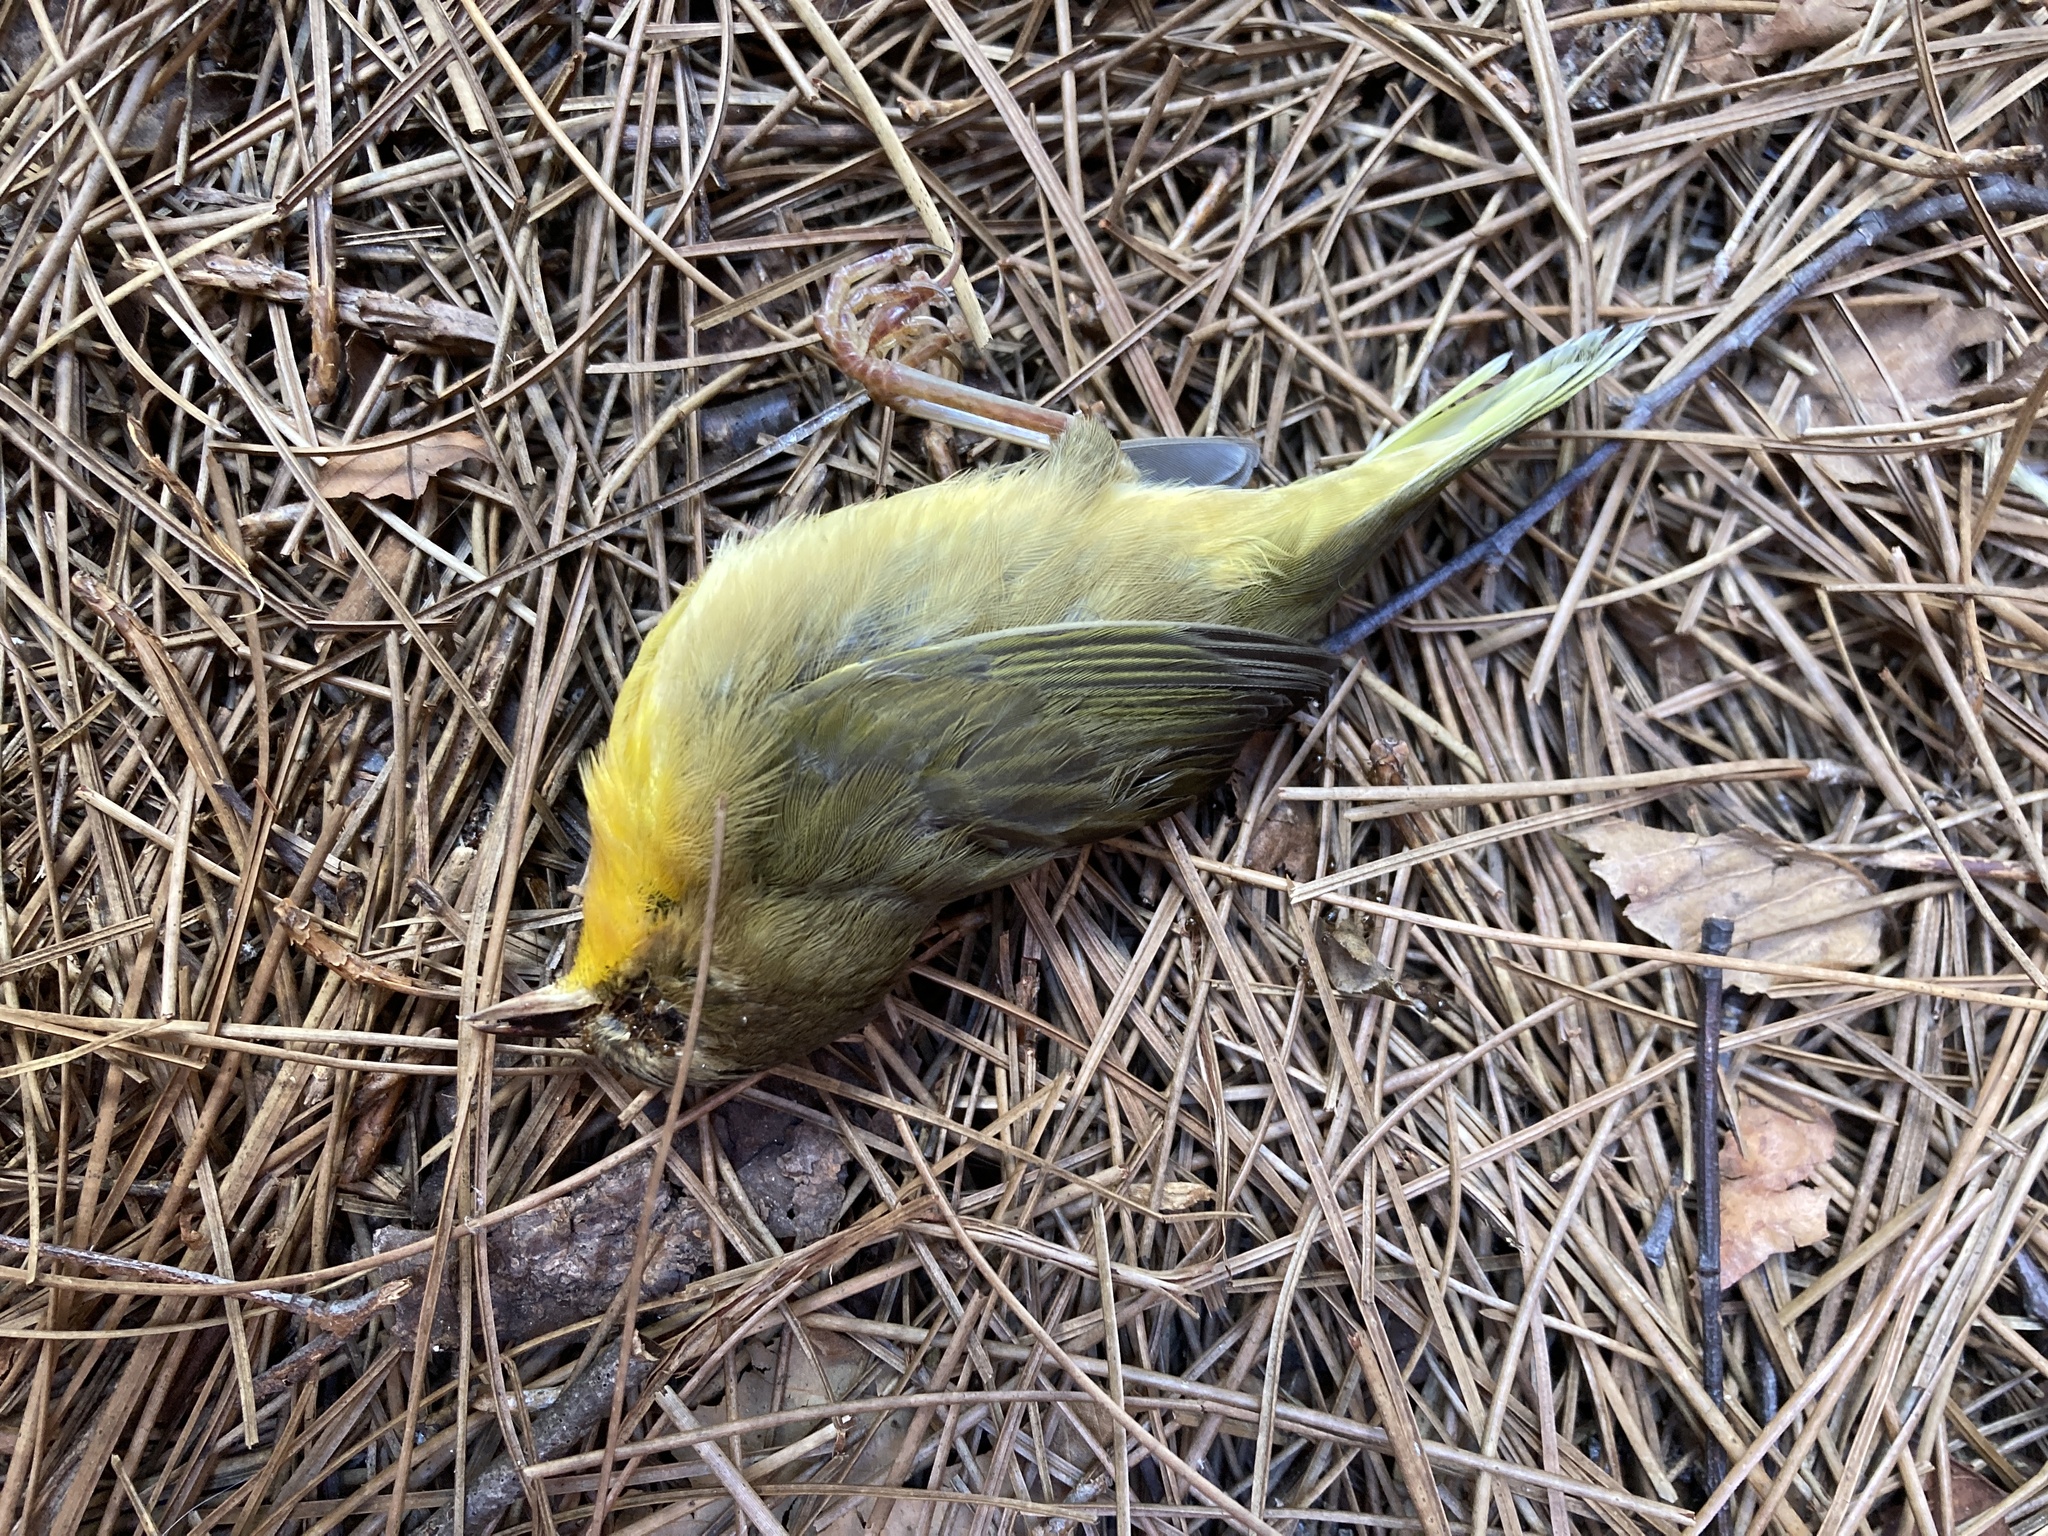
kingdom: Animalia
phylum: Chordata
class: Aves
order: Passeriformes
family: Parulidae
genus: Geothlypis
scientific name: Geothlypis trichas
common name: Common yellowthroat
